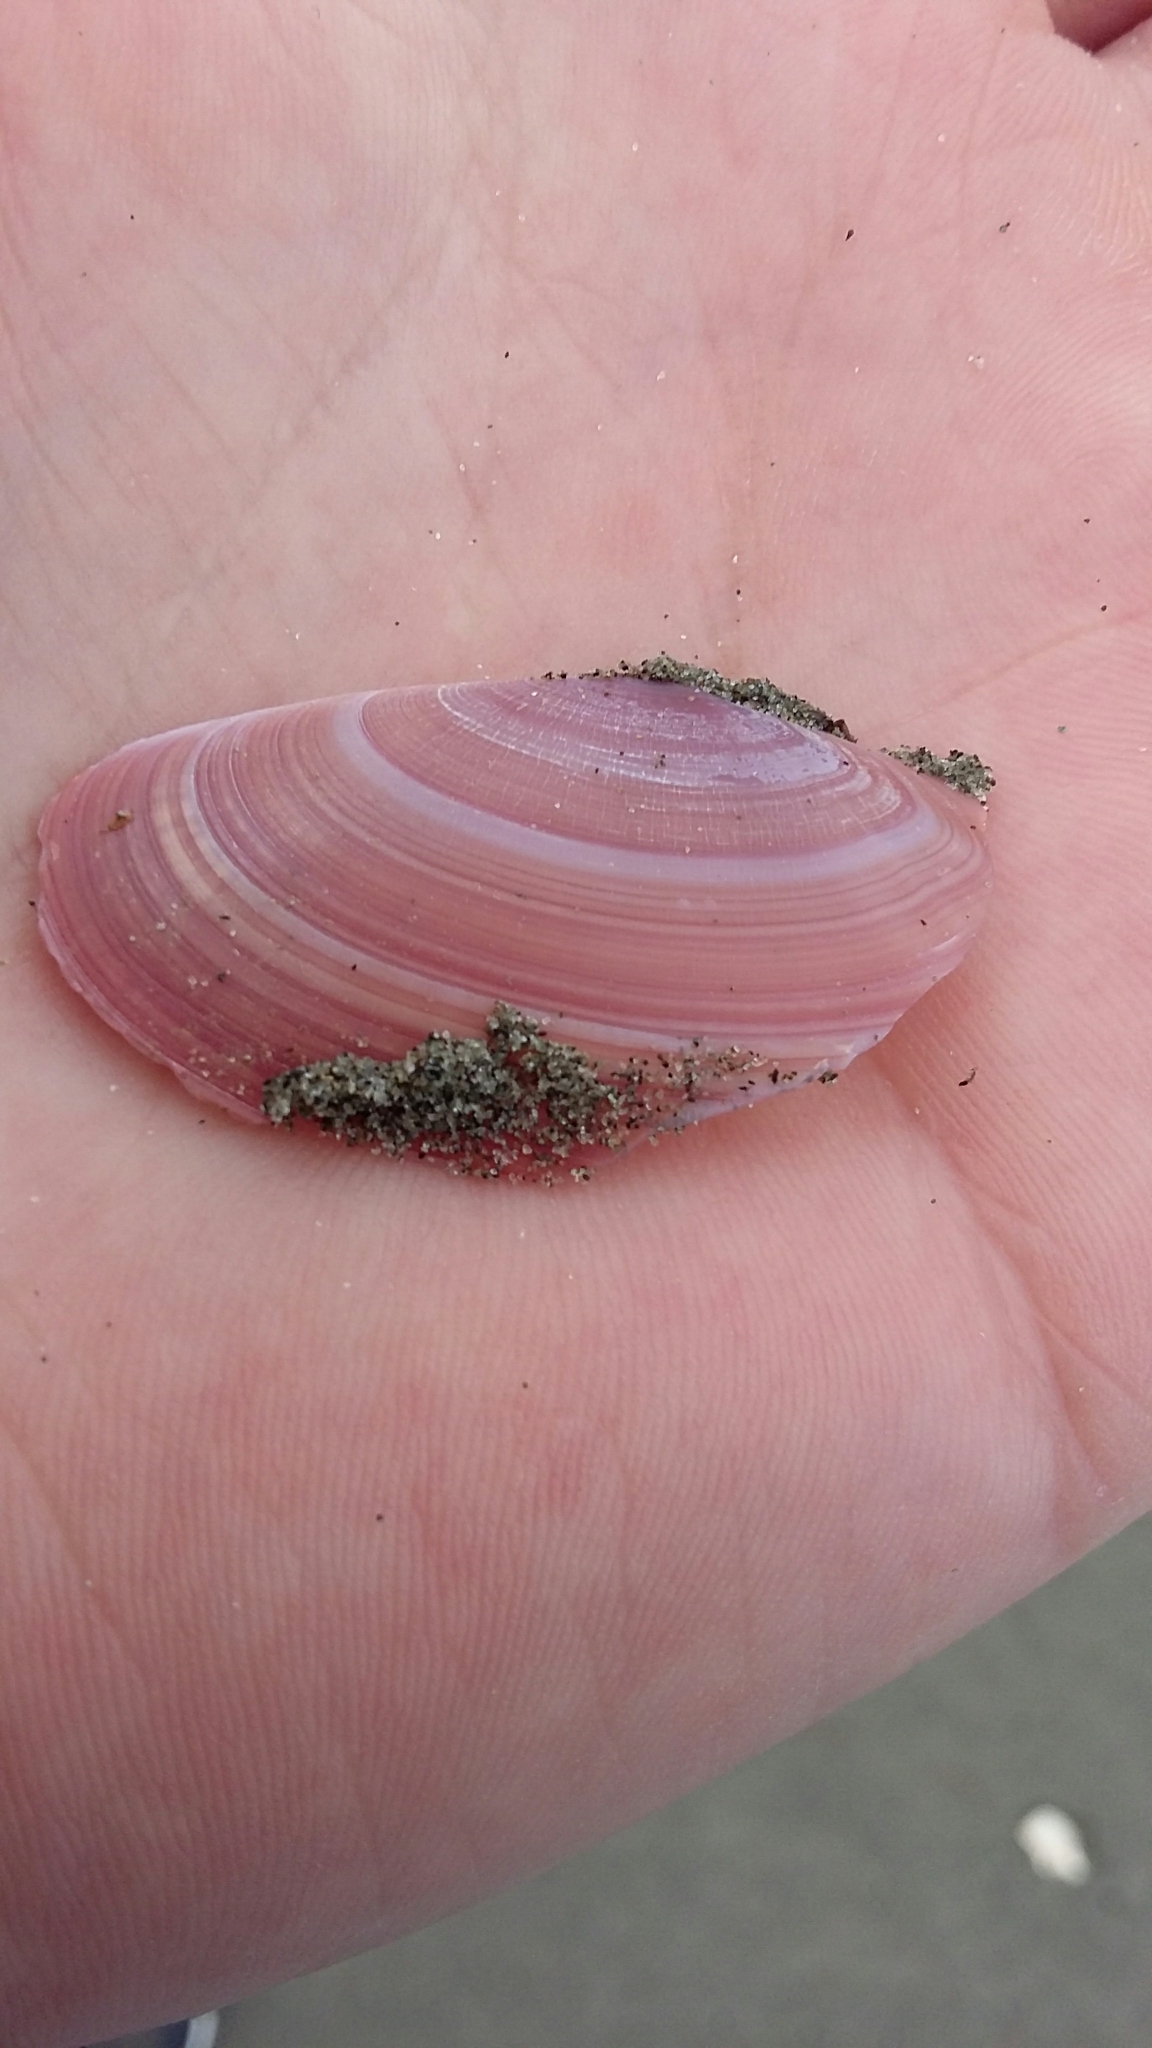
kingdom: Animalia
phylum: Mollusca
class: Bivalvia
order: Cardiida
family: Psammobiidae
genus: Gari
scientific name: Gari lineolata
